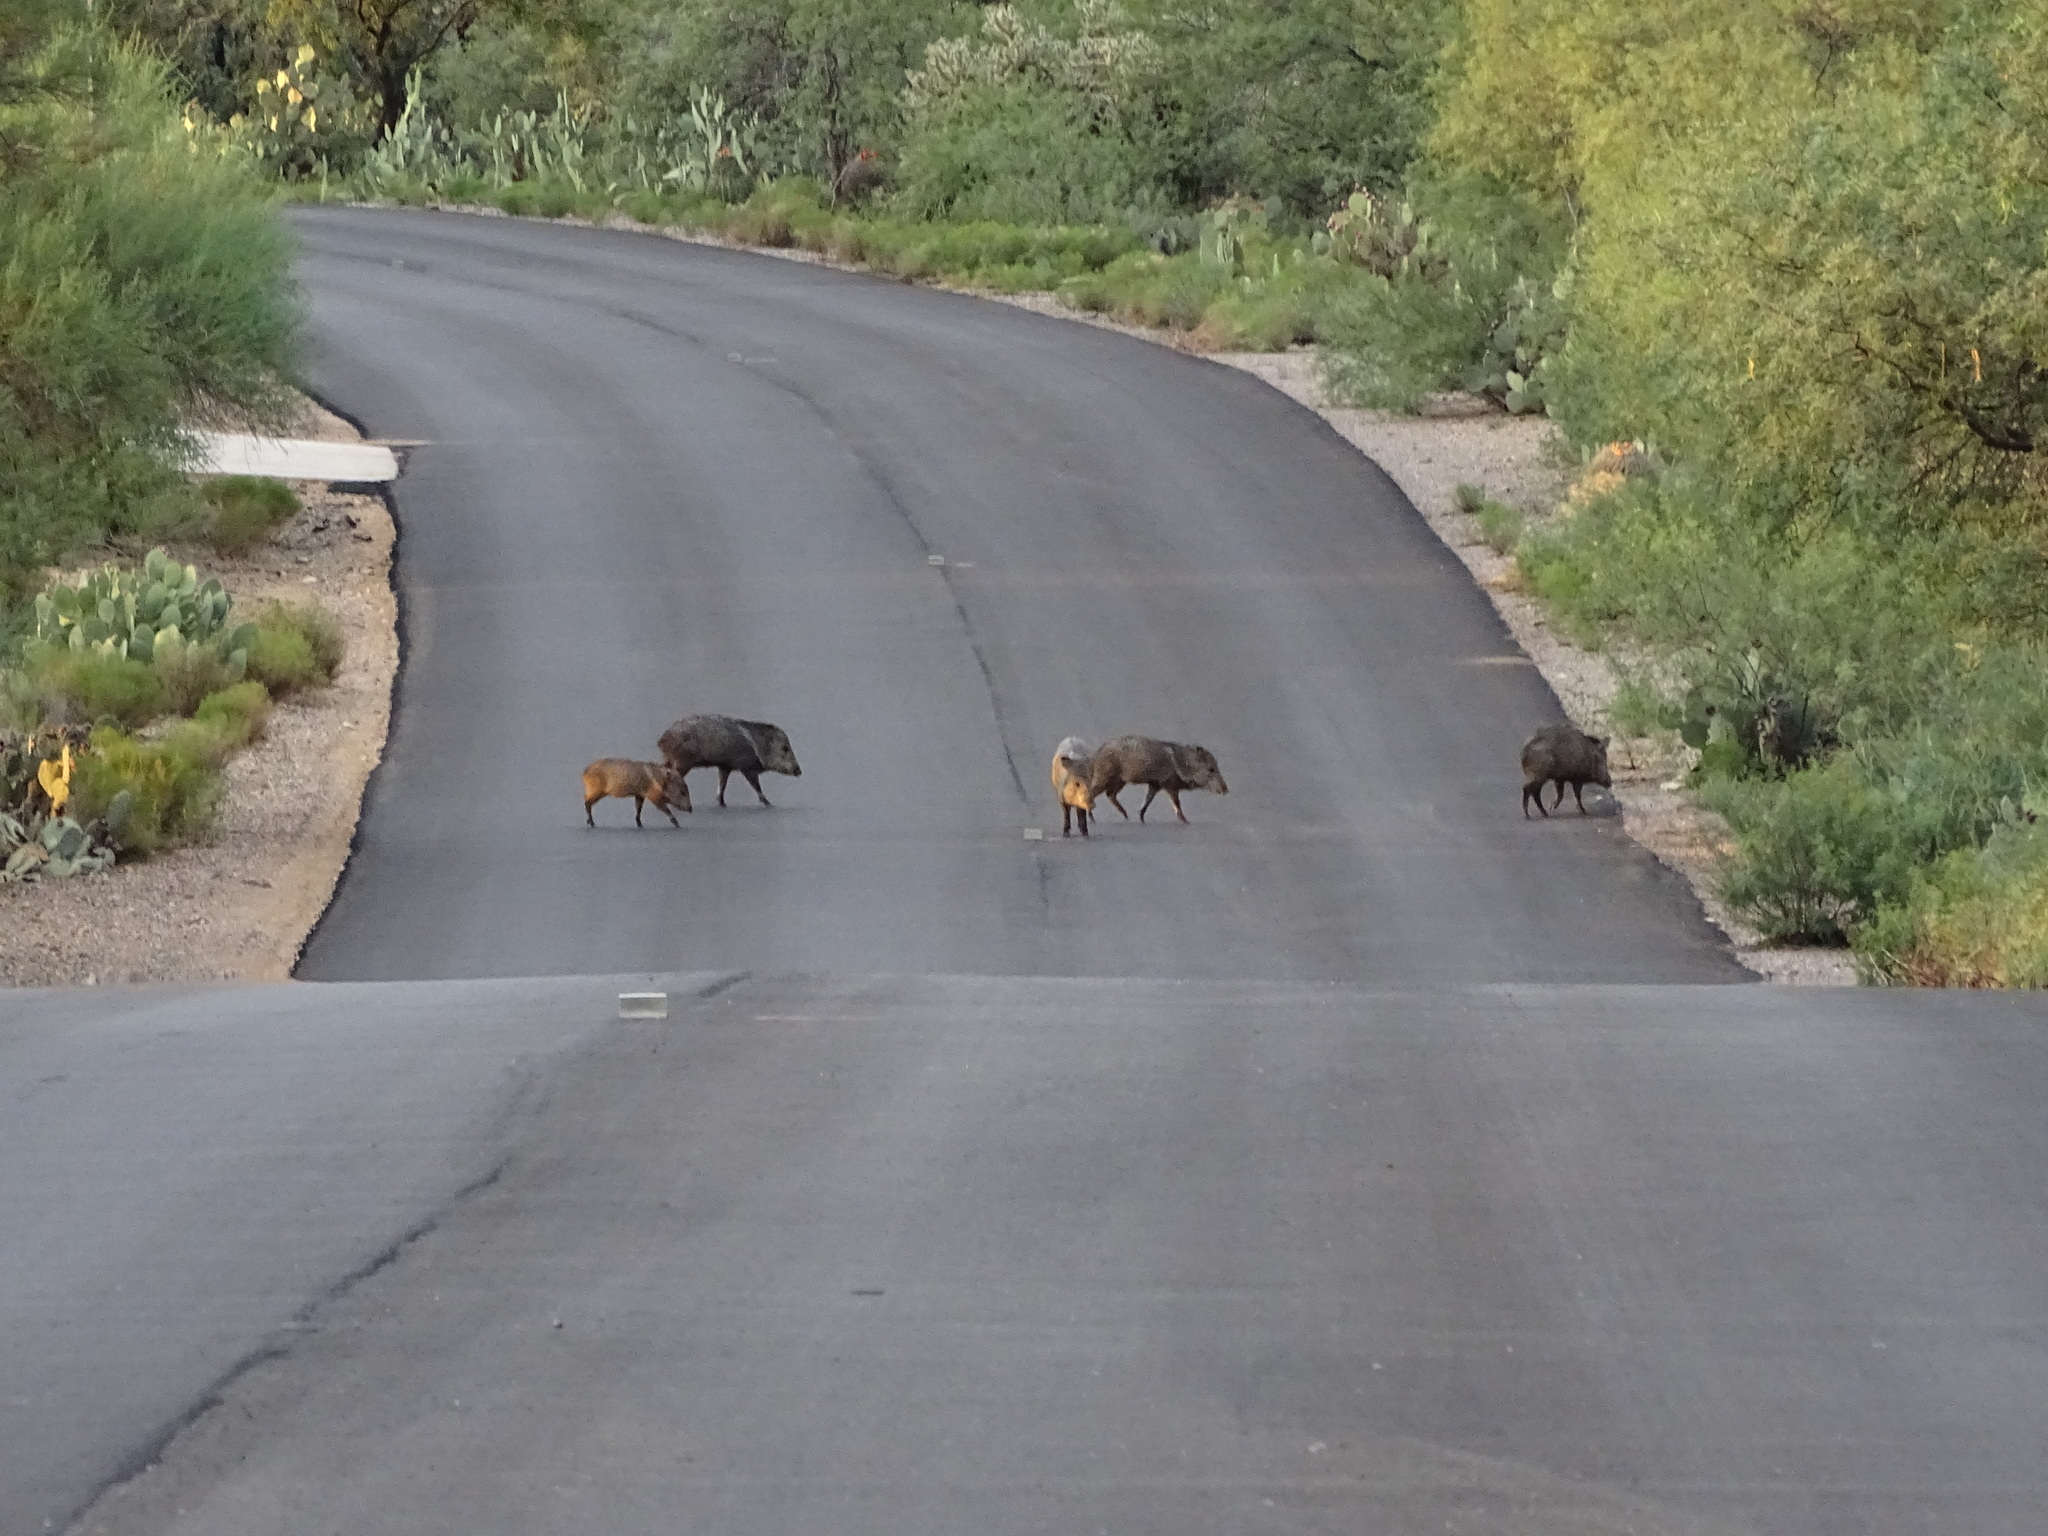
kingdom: Animalia
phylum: Chordata
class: Mammalia
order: Artiodactyla
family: Tayassuidae
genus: Pecari
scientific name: Pecari tajacu
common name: Collared peccary
